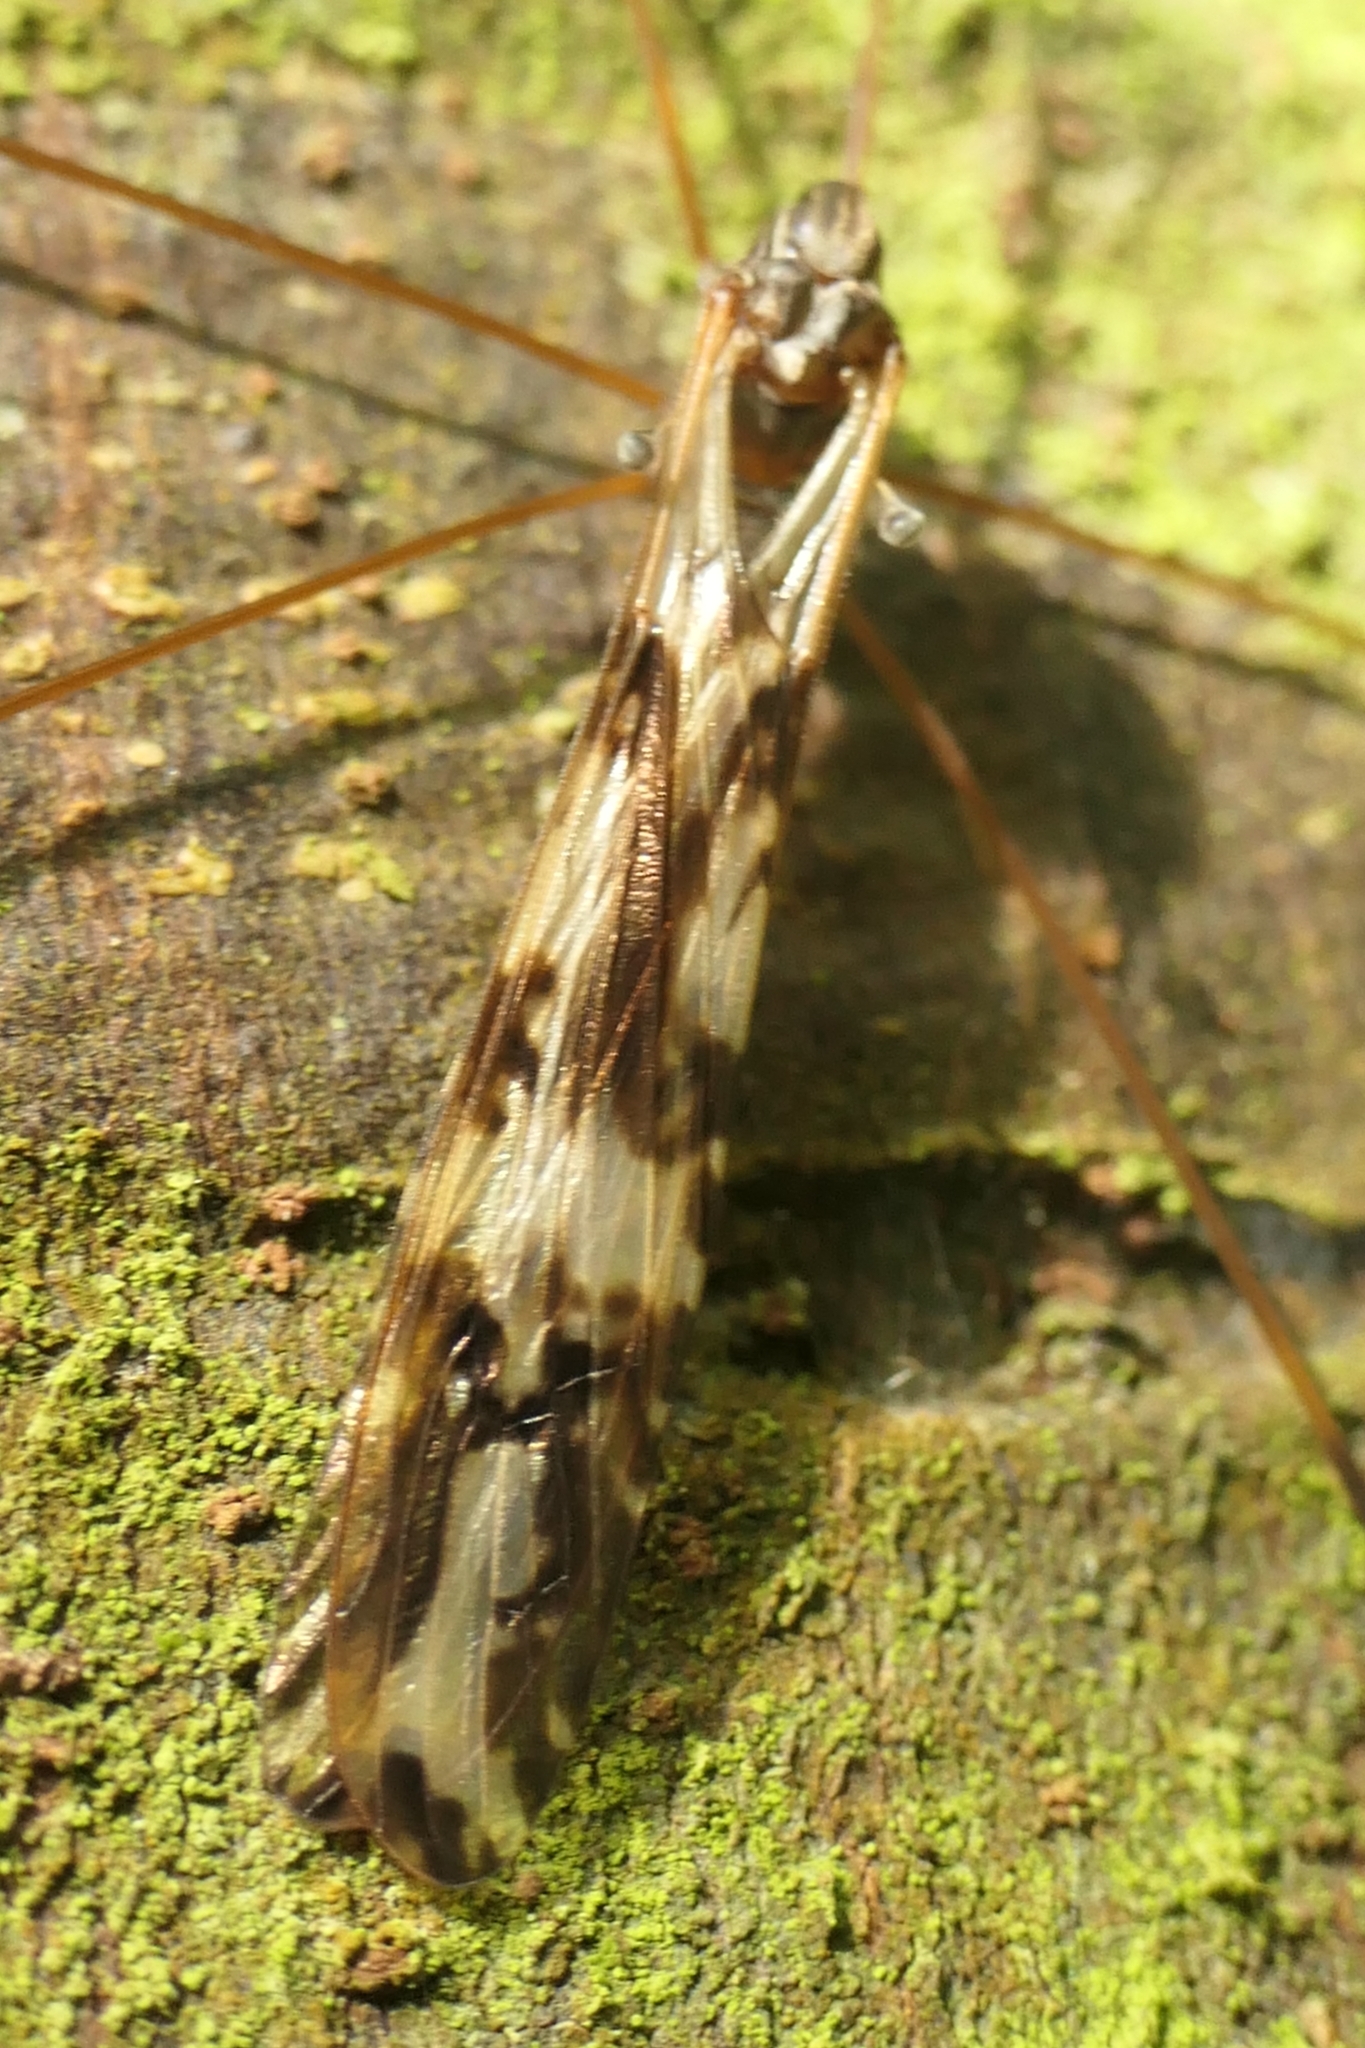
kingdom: Animalia
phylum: Arthropoda
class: Insecta
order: Diptera
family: Limoniidae
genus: Discobola
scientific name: Discobola dohrni
